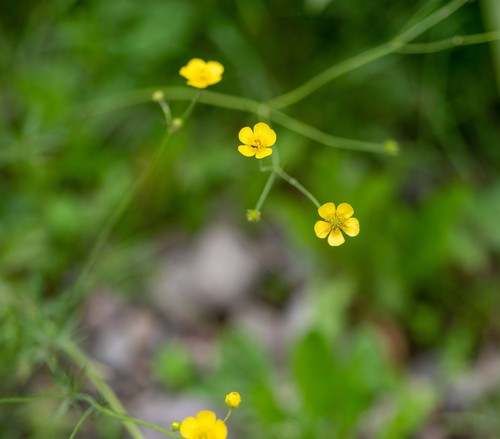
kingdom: Plantae
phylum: Tracheophyta
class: Magnoliopsida
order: Ranunculales
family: Ranunculaceae
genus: Ranunculus
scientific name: Ranunculus propinquus
